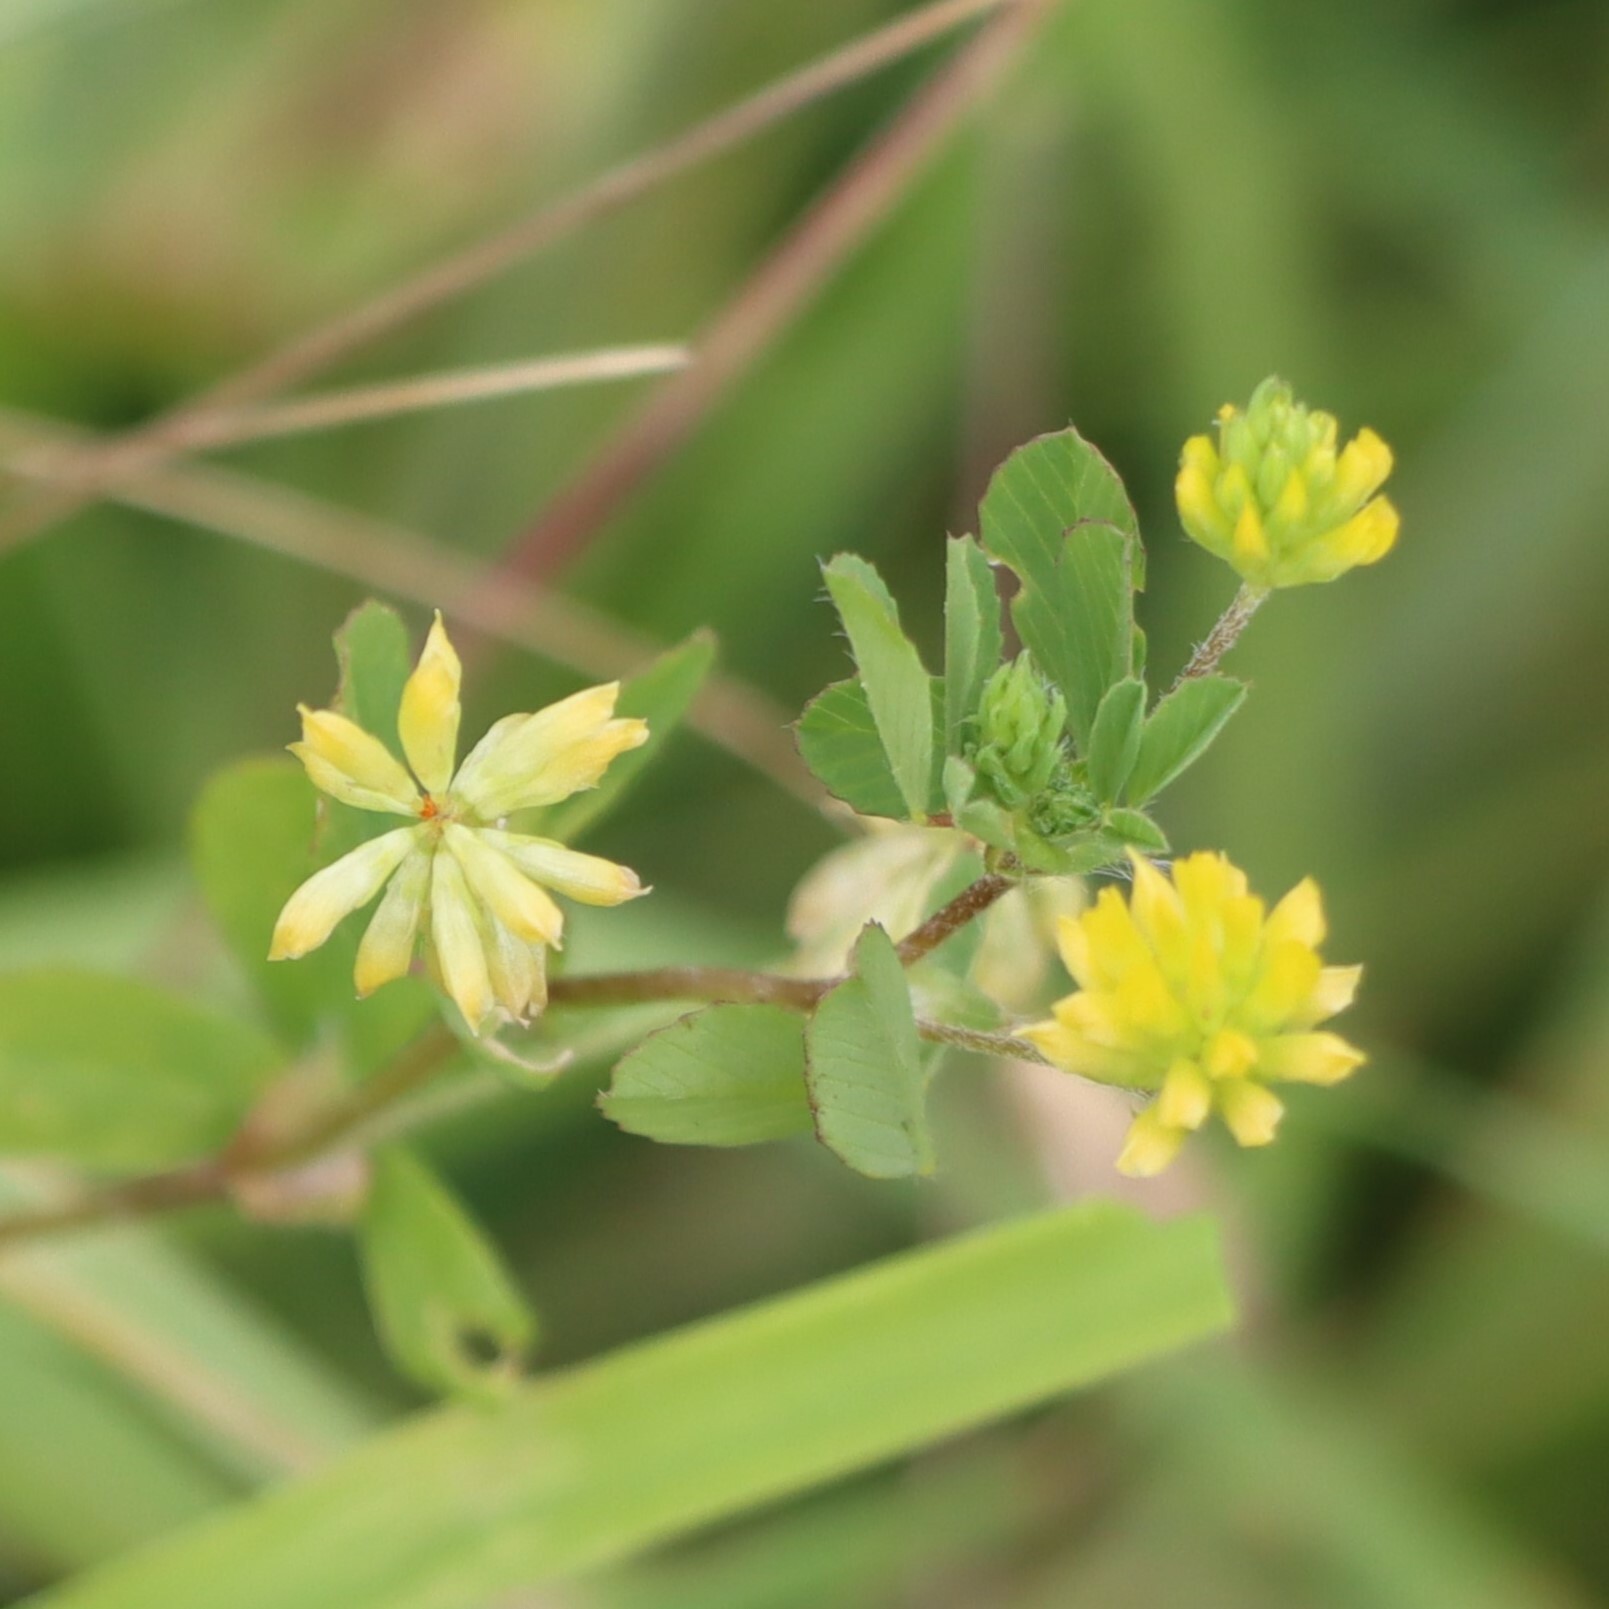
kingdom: Plantae
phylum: Tracheophyta
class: Magnoliopsida
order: Fabales
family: Fabaceae
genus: Trifolium
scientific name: Trifolium dubium
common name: Suckling clover
